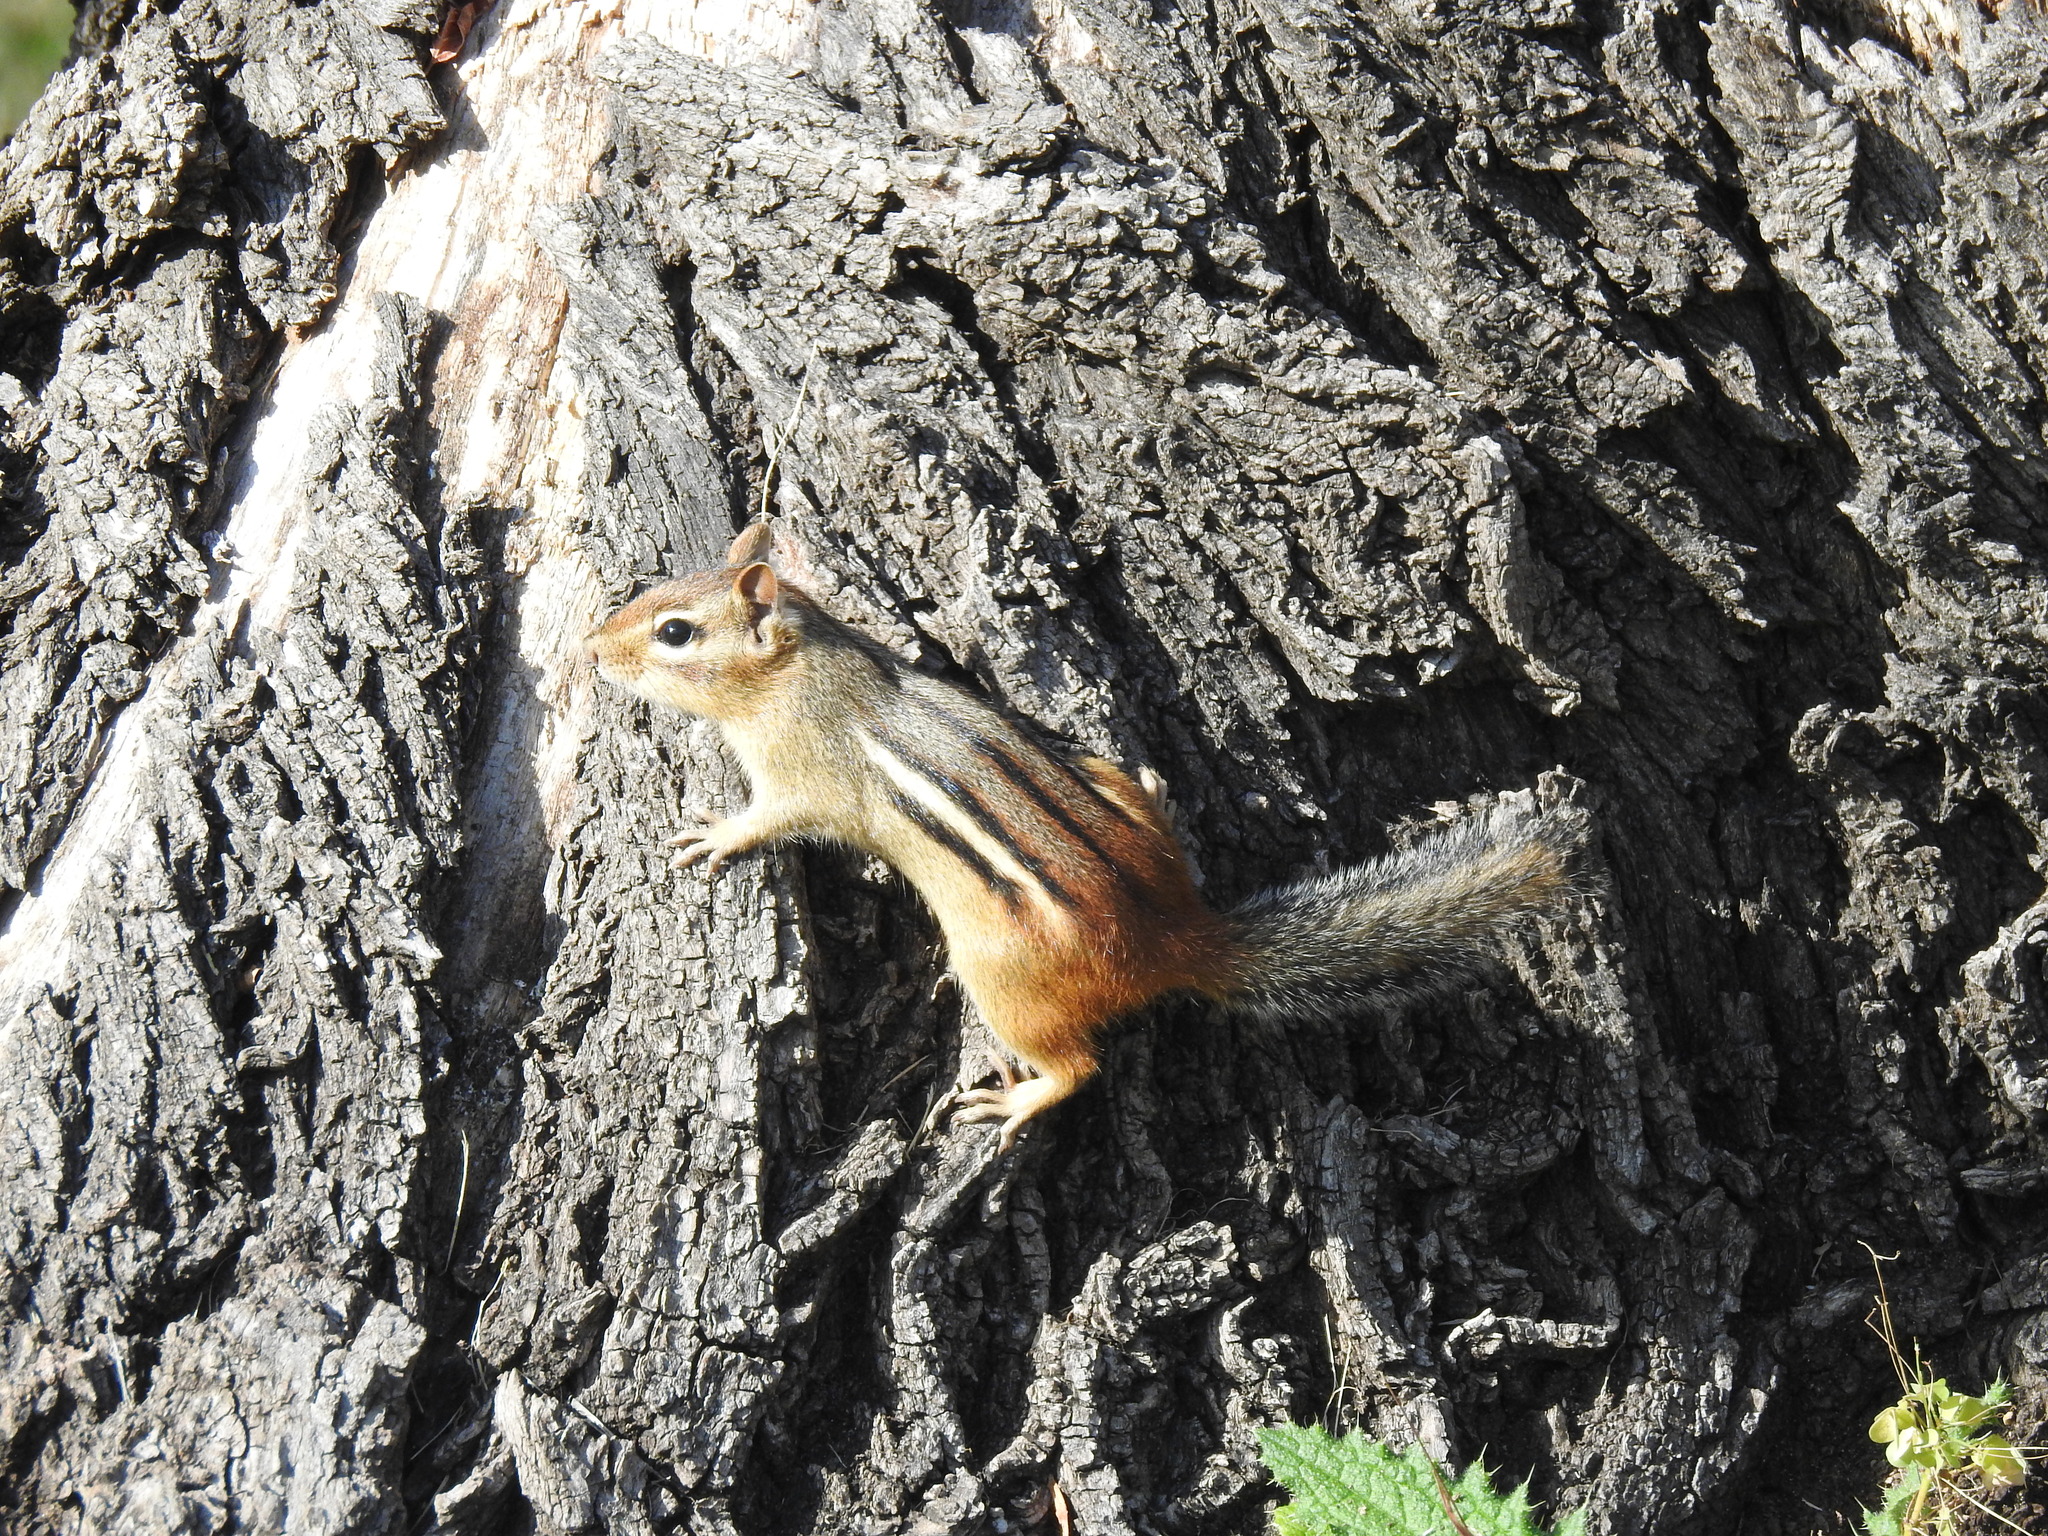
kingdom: Animalia
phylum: Chordata
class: Mammalia
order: Rodentia
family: Sciuridae
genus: Tamias
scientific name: Tamias striatus
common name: Eastern chipmunk
